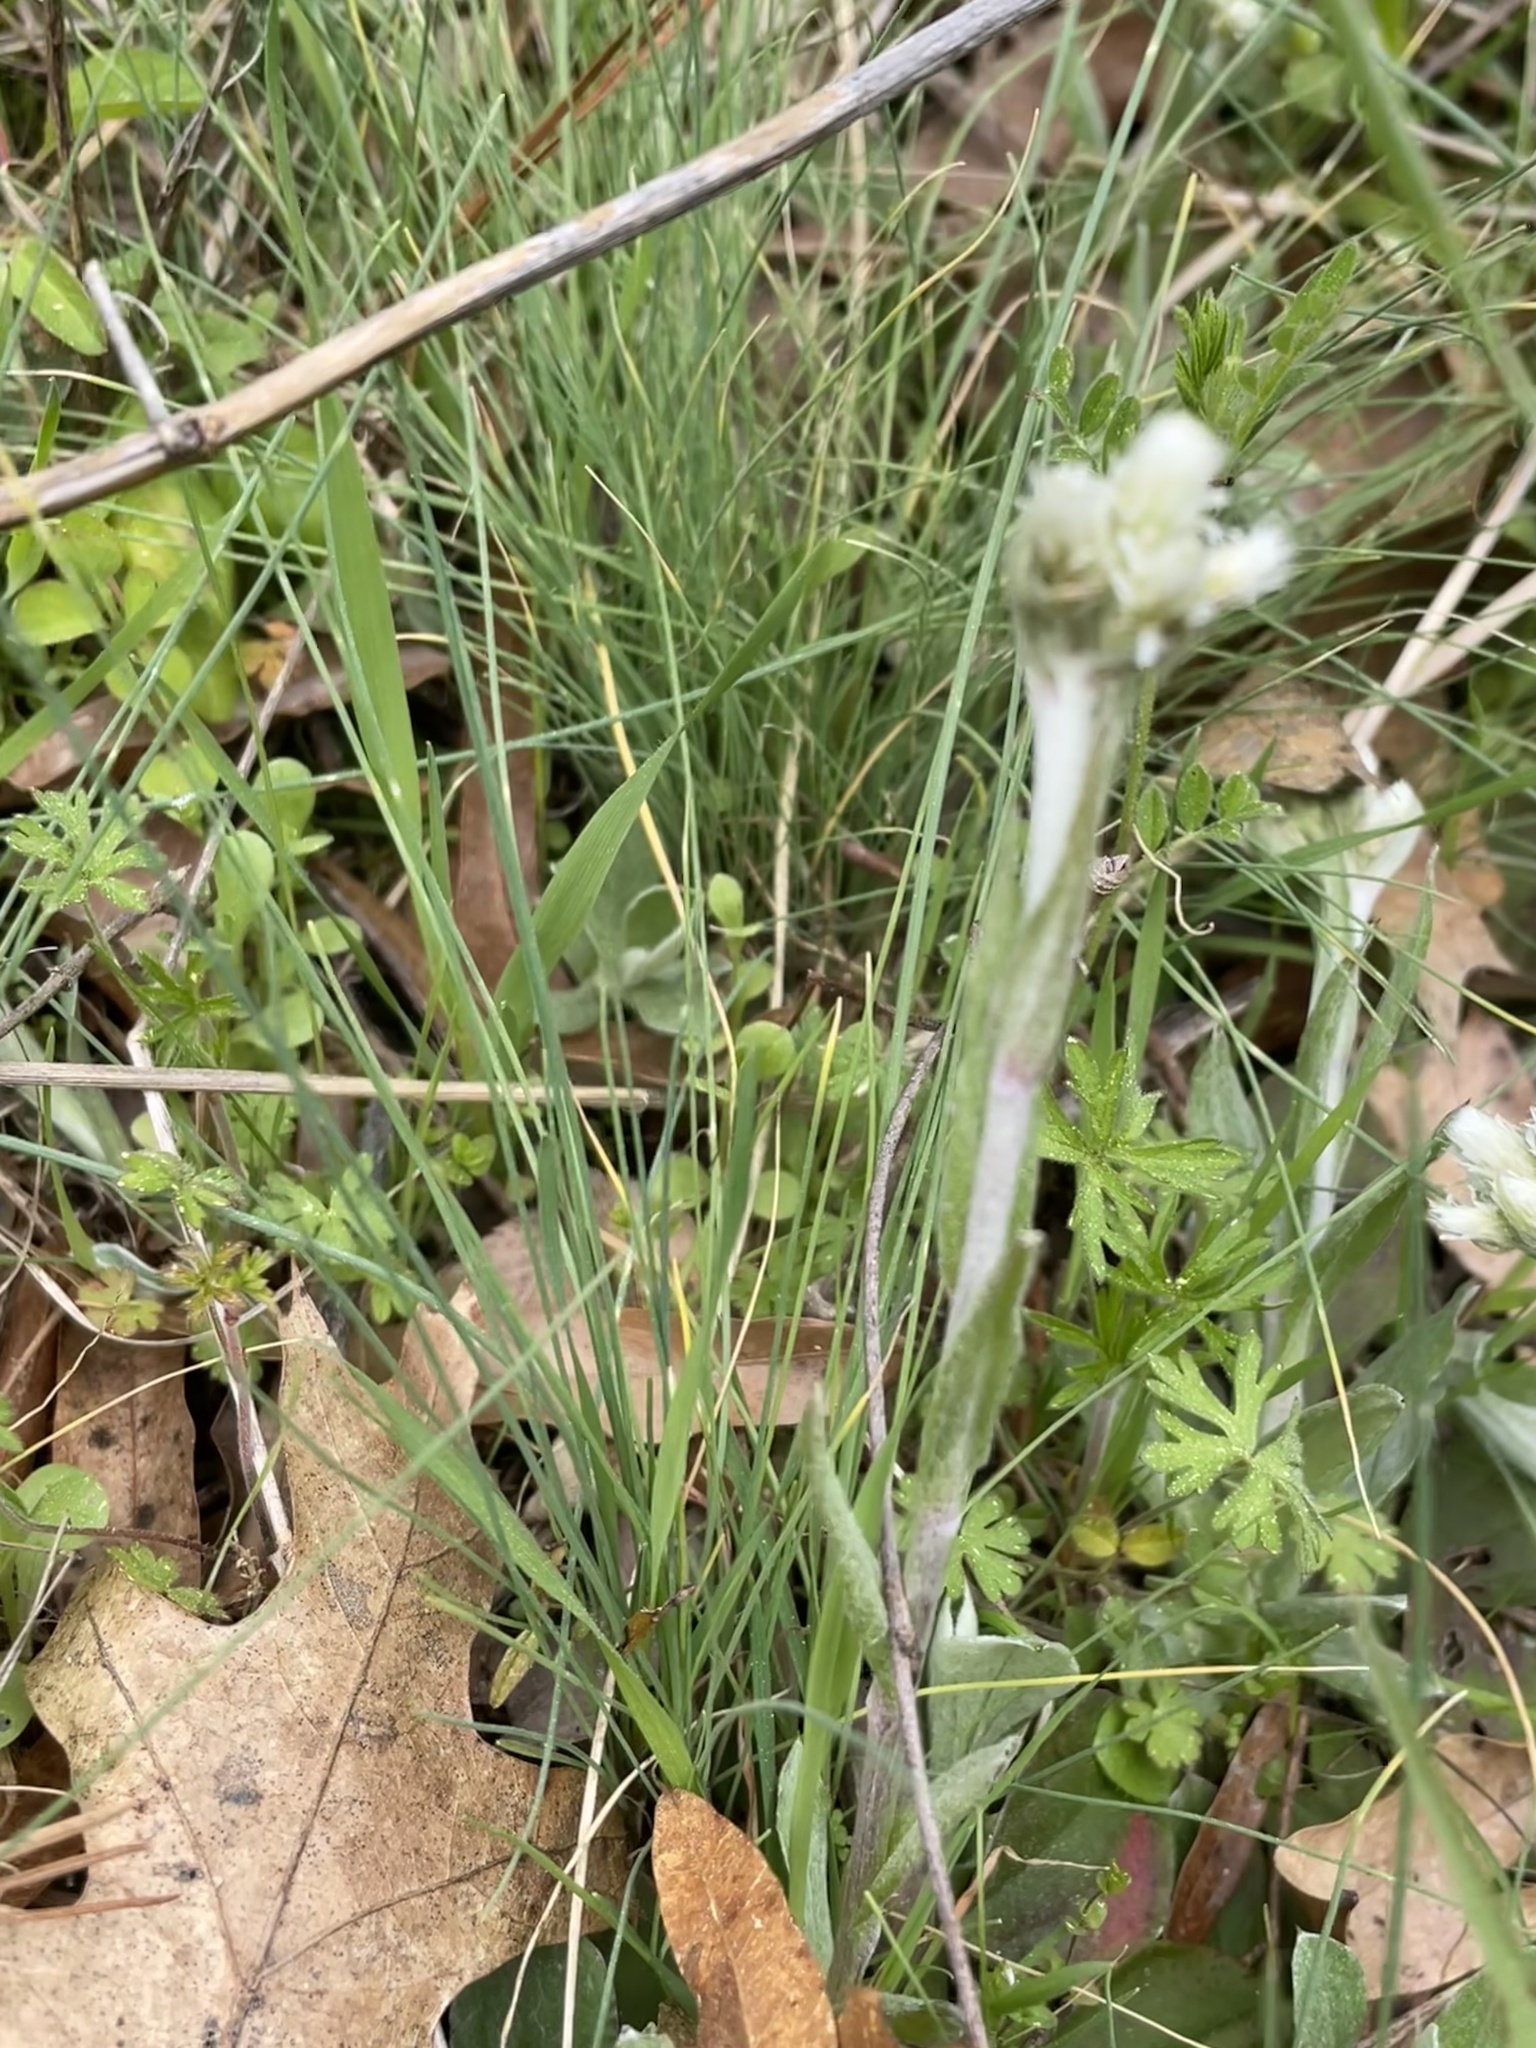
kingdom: Plantae
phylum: Tracheophyta
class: Magnoliopsida
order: Asterales
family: Asteraceae
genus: Antennaria
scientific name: Antennaria parlinii
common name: Parlin's pussytoes
